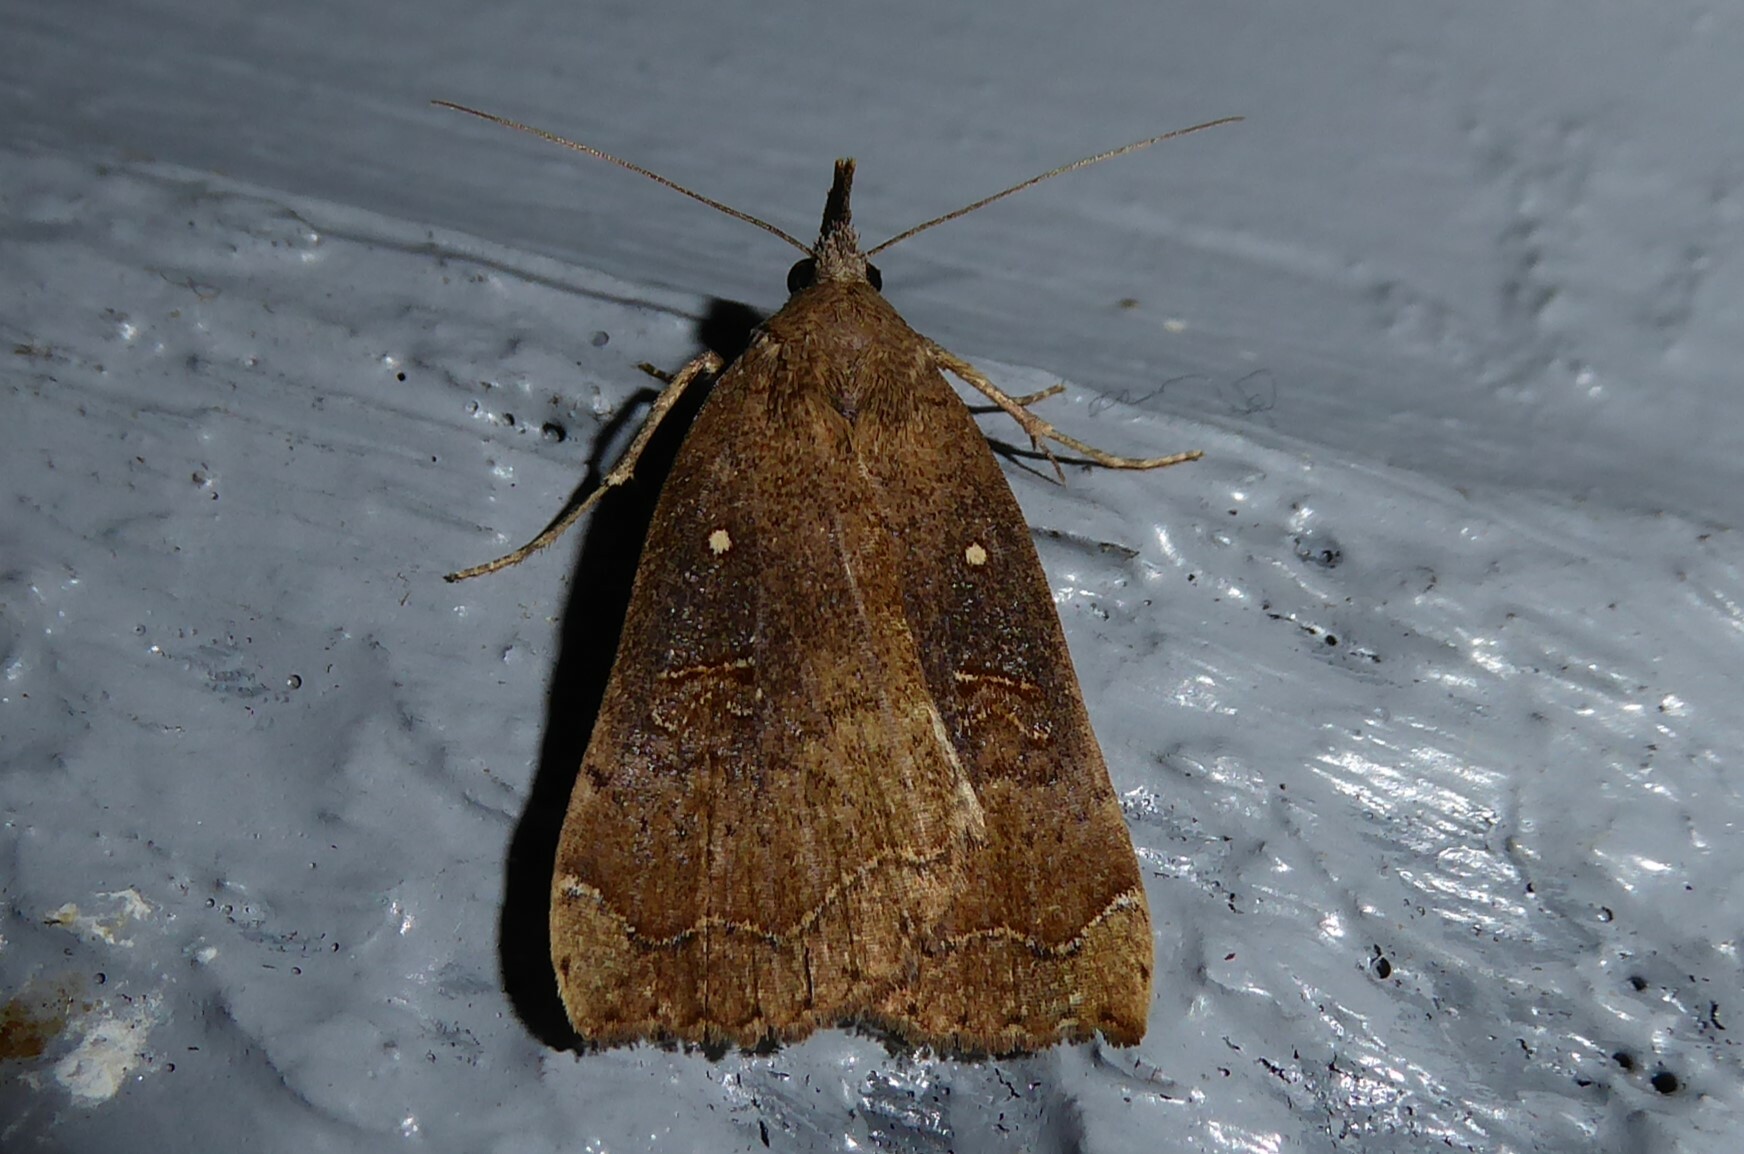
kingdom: Animalia
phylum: Arthropoda
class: Insecta
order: Lepidoptera
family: Erebidae
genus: Rhapsa
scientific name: Rhapsa scotosialis
